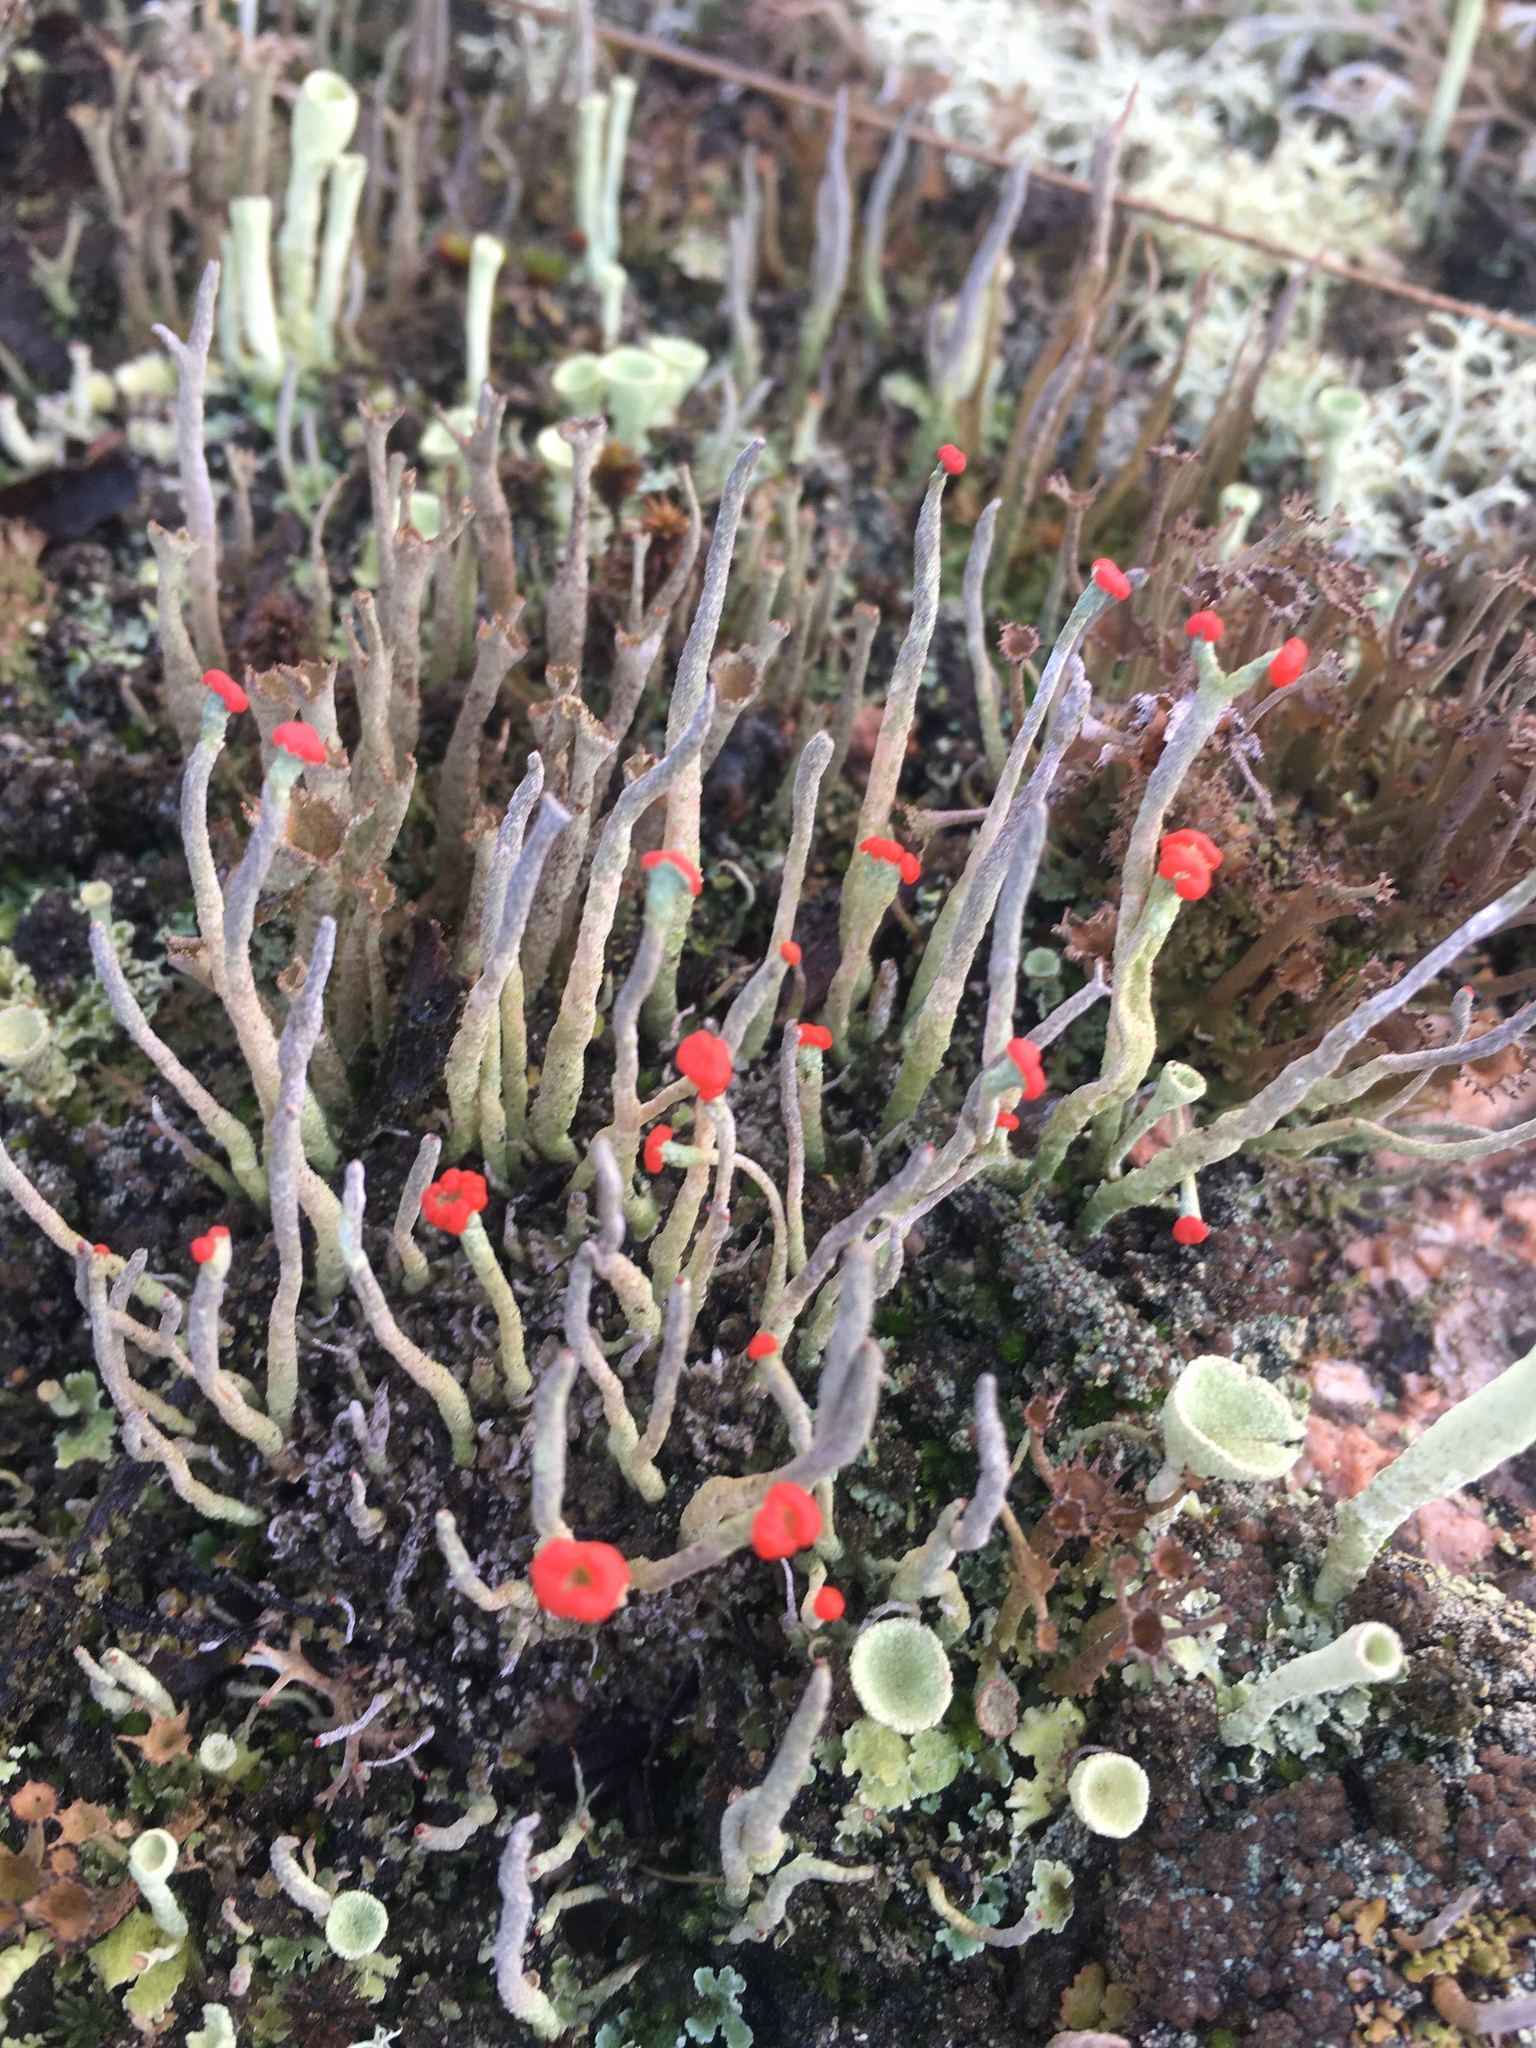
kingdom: Fungi
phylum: Ascomycota
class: Lecanoromycetes
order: Lecanorales
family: Cladoniaceae
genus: Cladonia
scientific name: Cladonia macilenta
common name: Lipstick powderhorn
